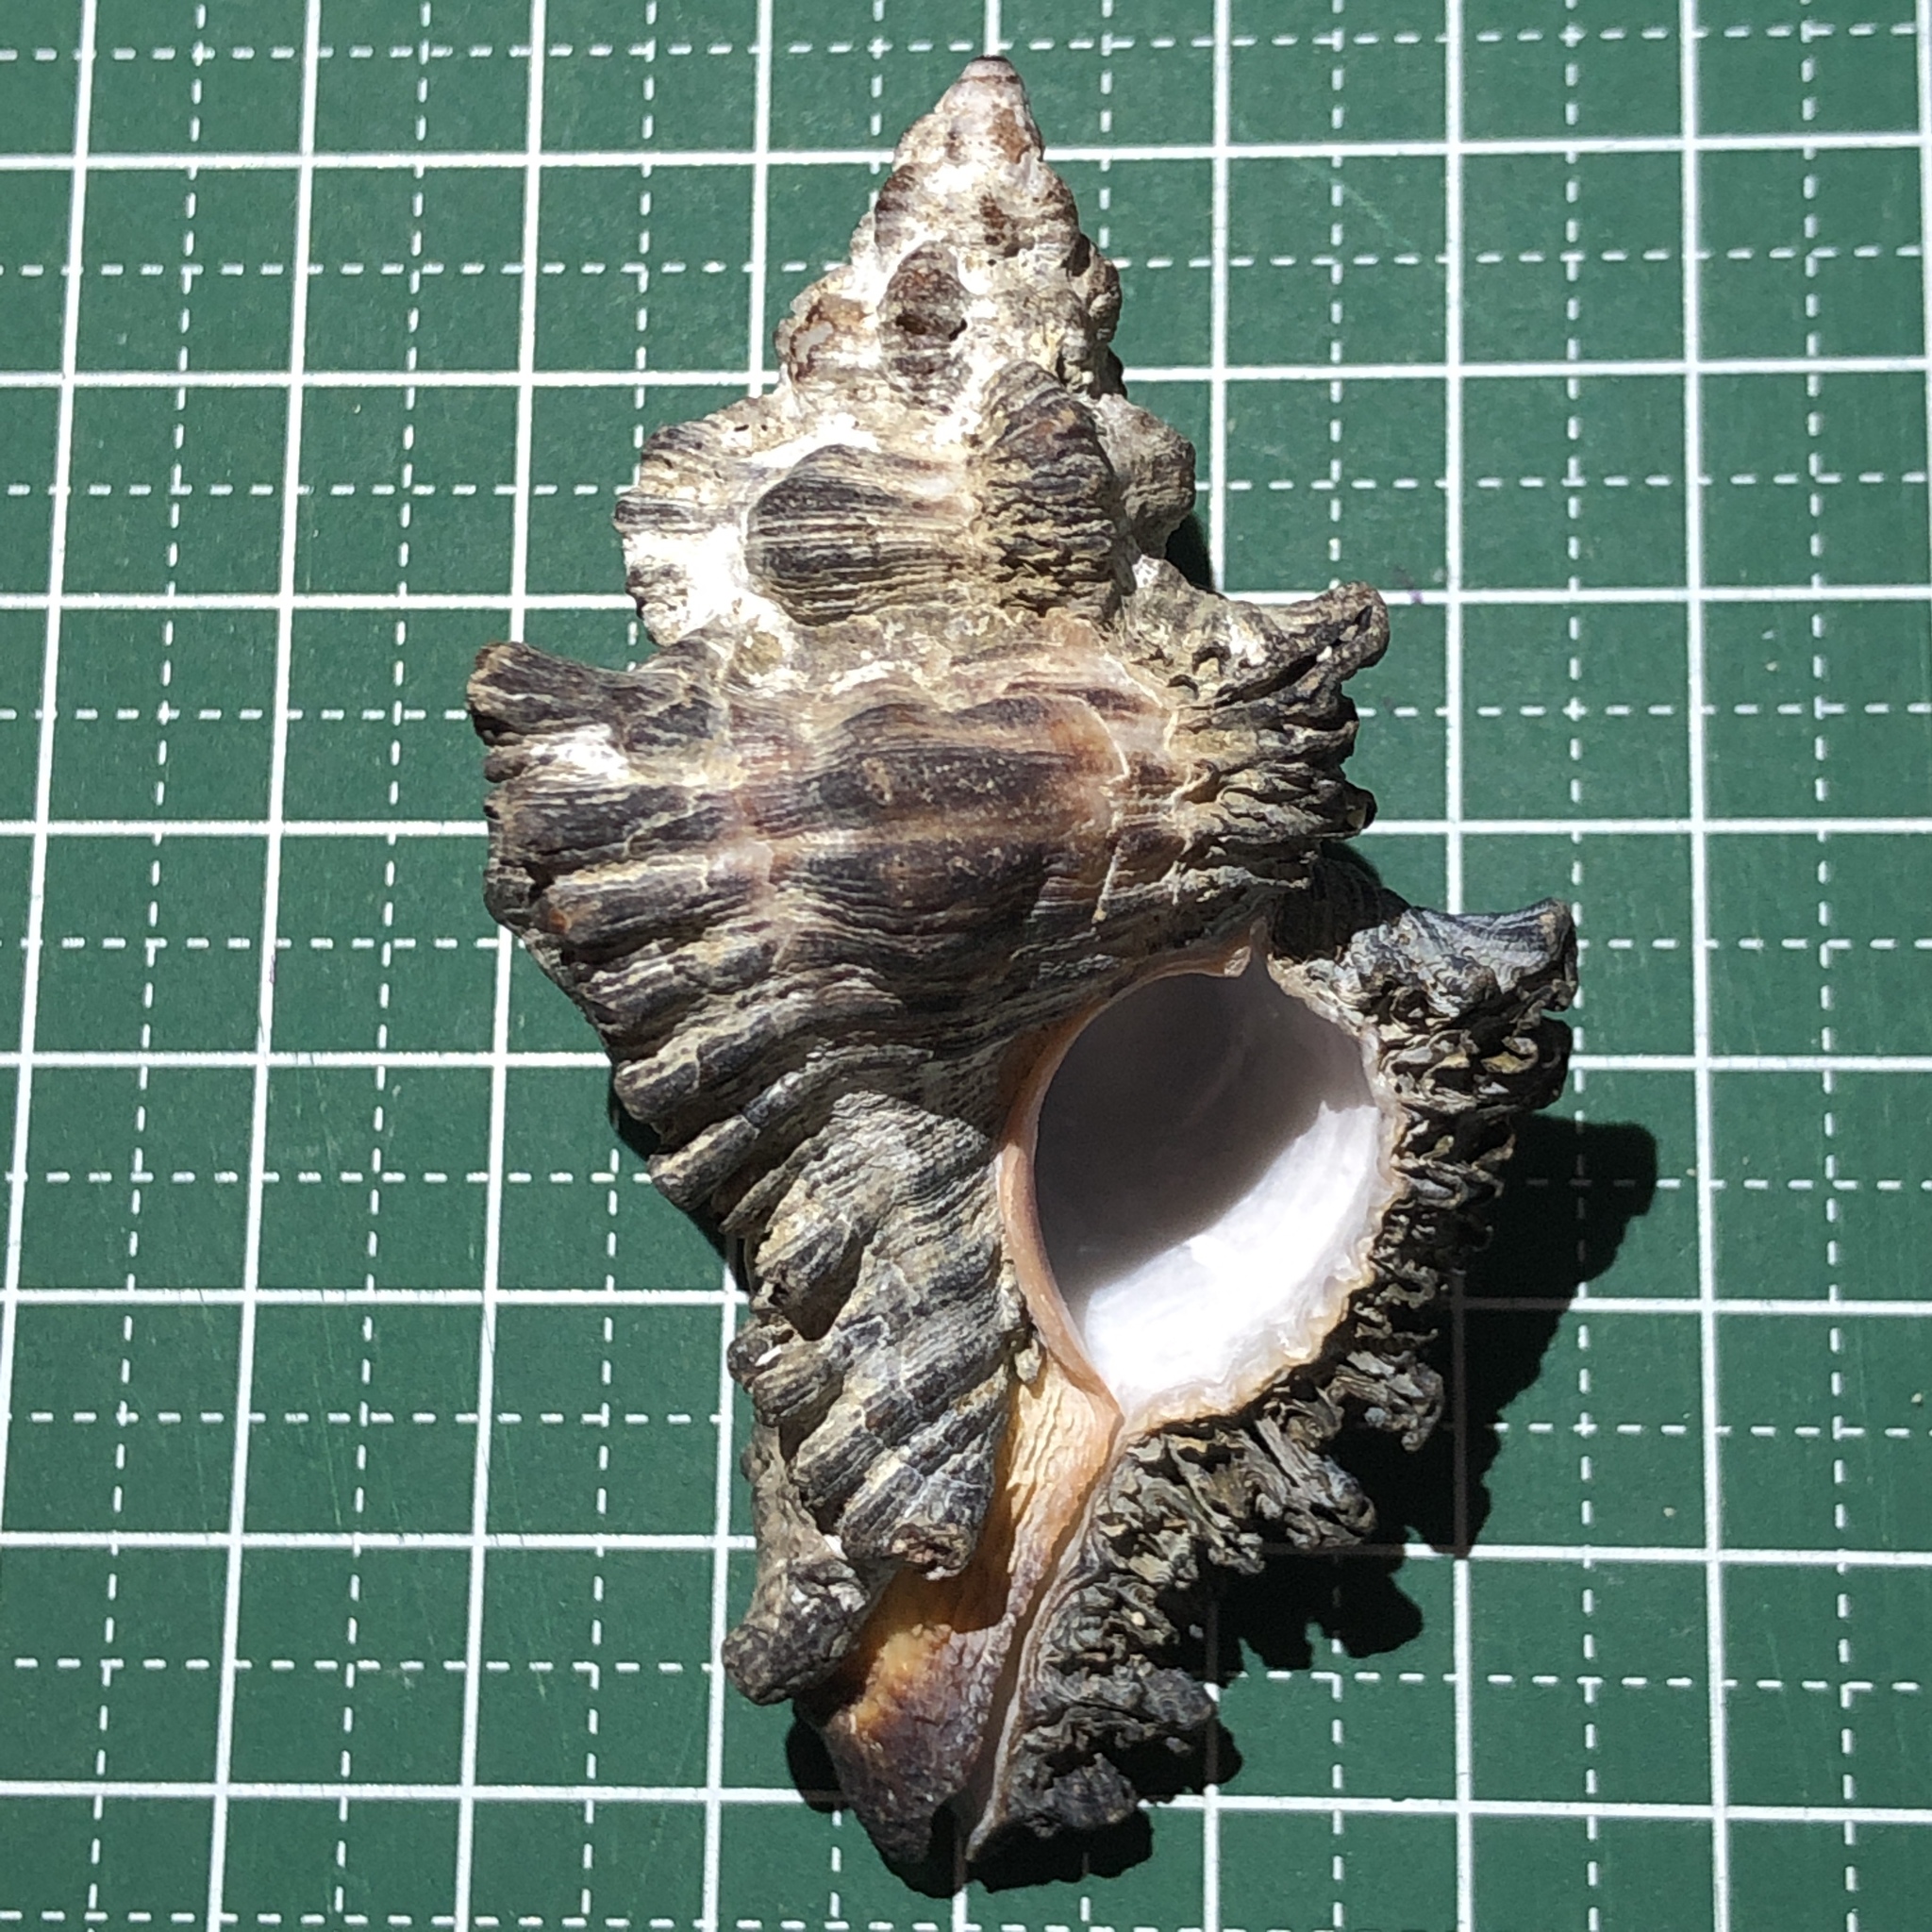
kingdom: Animalia
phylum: Mollusca
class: Gastropoda
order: Neogastropoda
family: Muricidae
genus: Chicoreus
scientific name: Chicoreus brunneus
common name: Adusta murex
